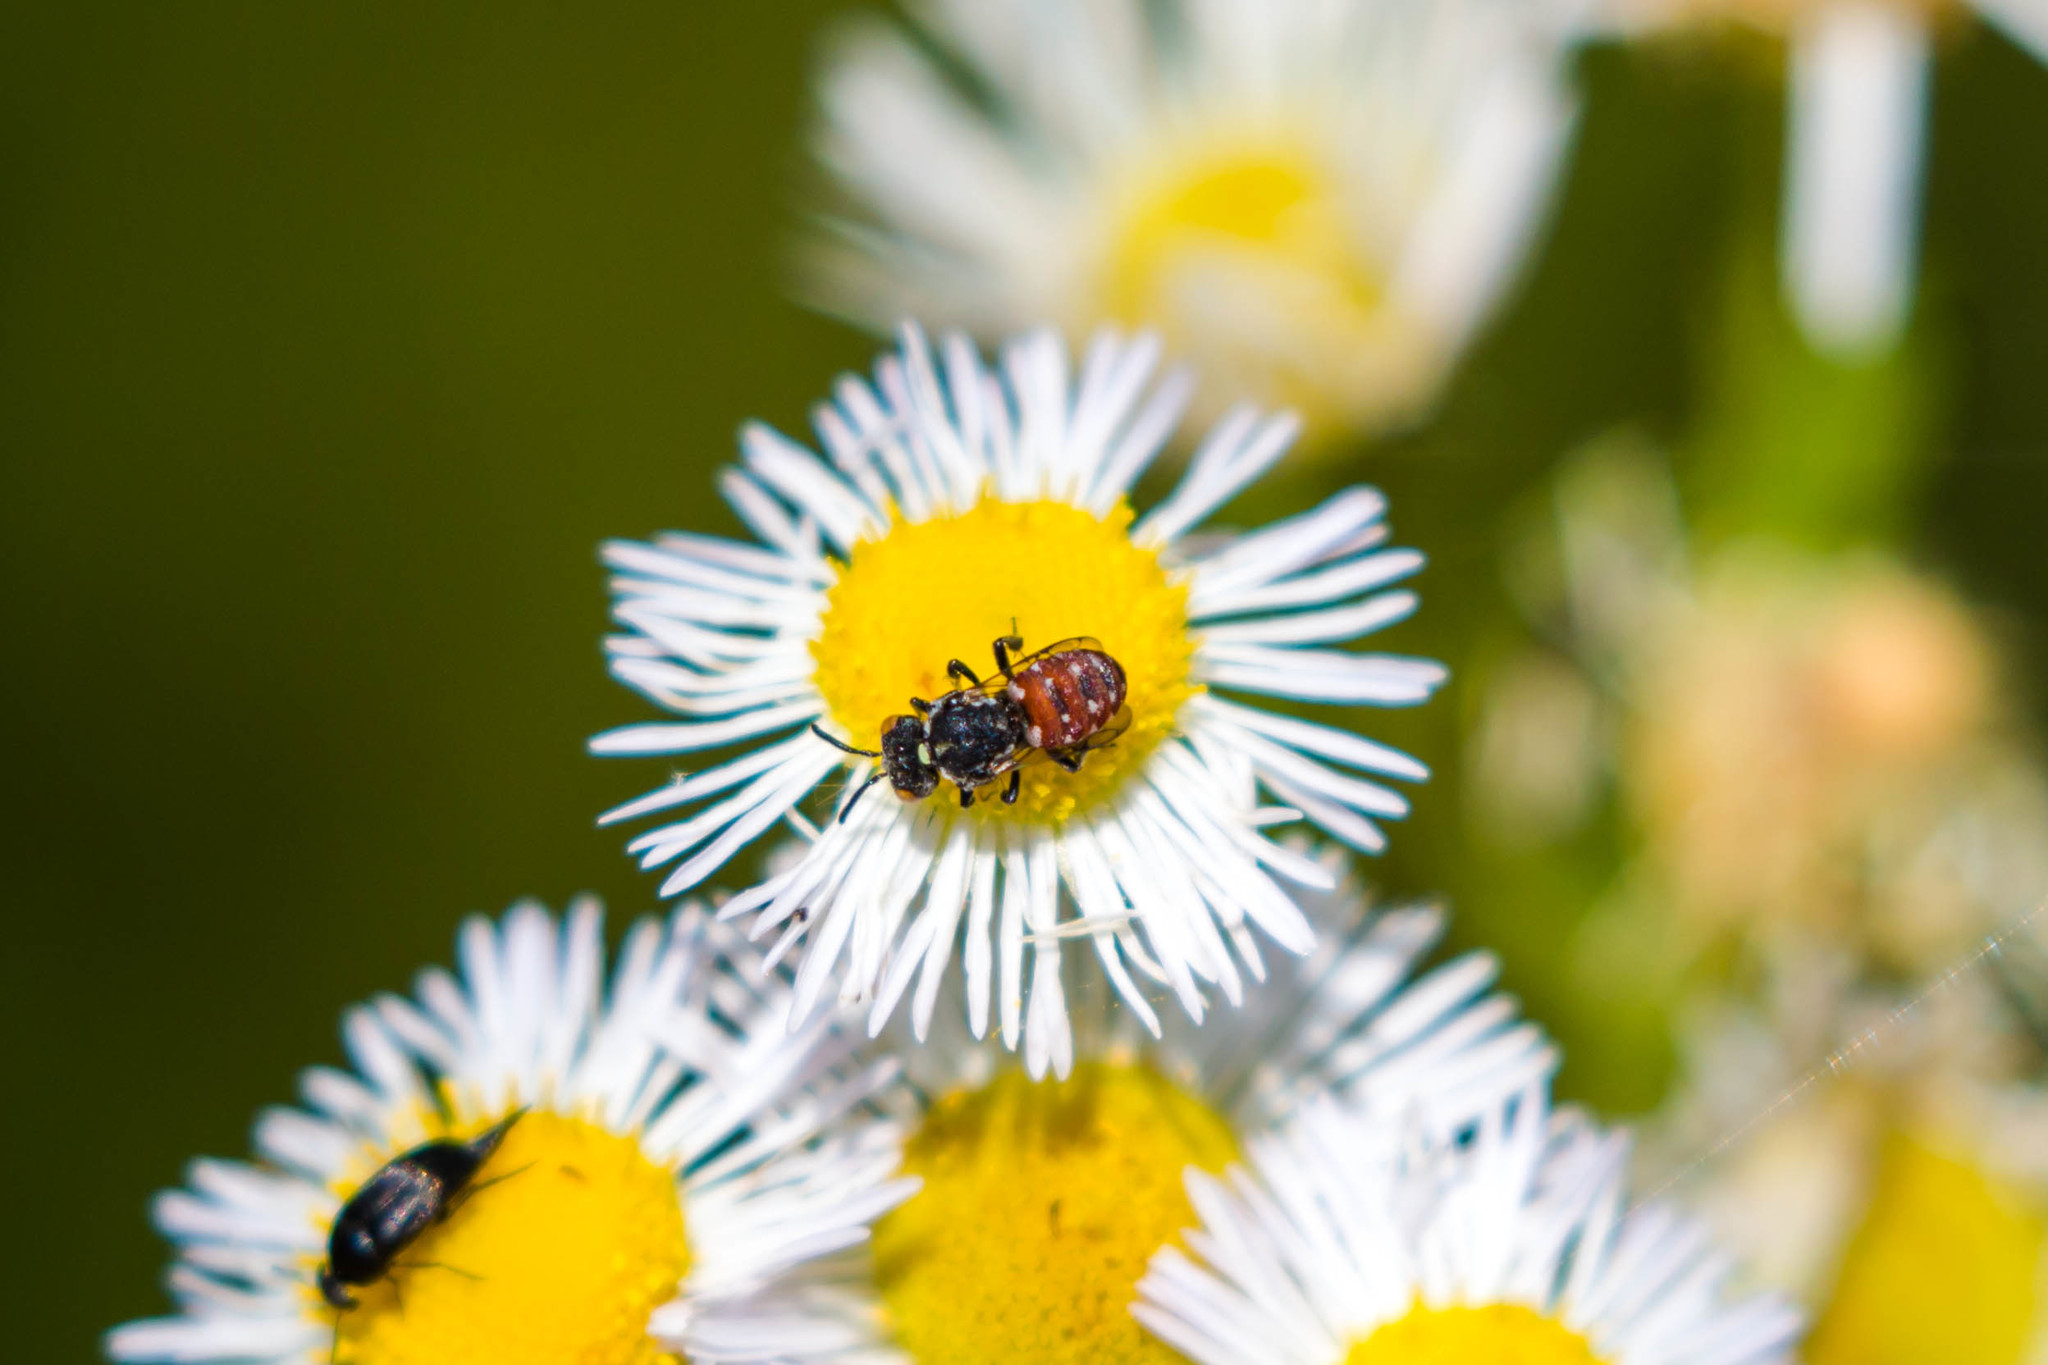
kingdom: Animalia
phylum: Arthropoda
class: Insecta
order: Hymenoptera
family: Apidae
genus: Holcopasites
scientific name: Holcopasites calliopsidis
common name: Calliopsis cuckoo nomad bee
